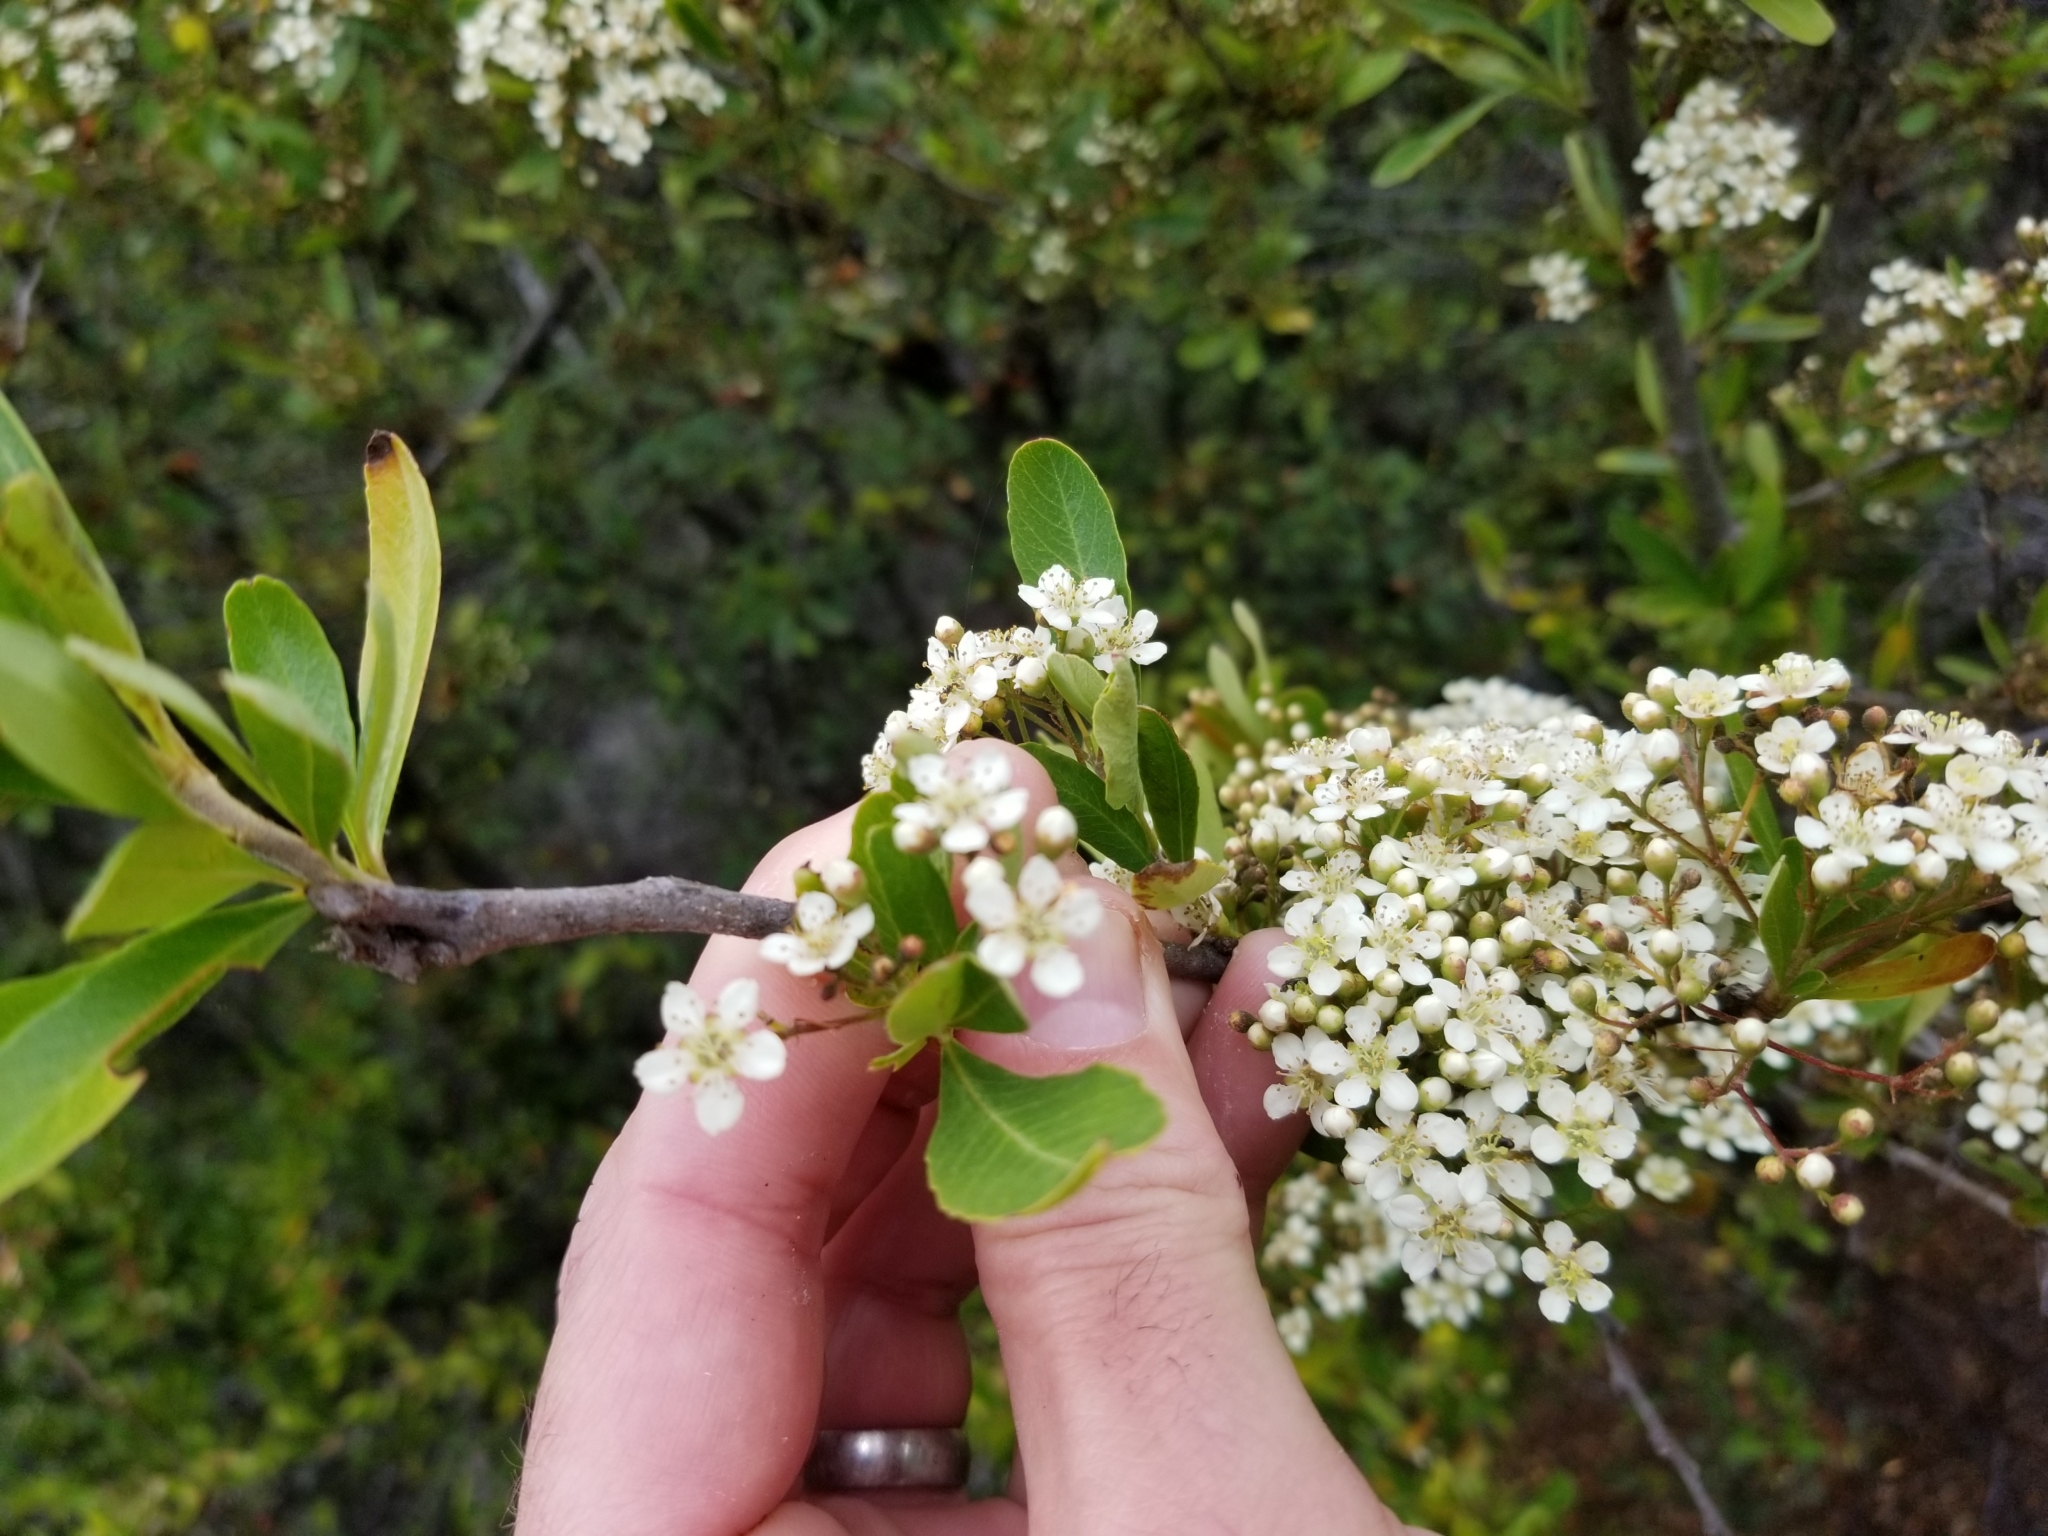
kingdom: Plantae
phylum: Tracheophyta
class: Magnoliopsida
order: Rosales
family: Rhamnaceae
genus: Ceanothus
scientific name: Ceanothus cuneatus
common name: Cuneate ceanothus
